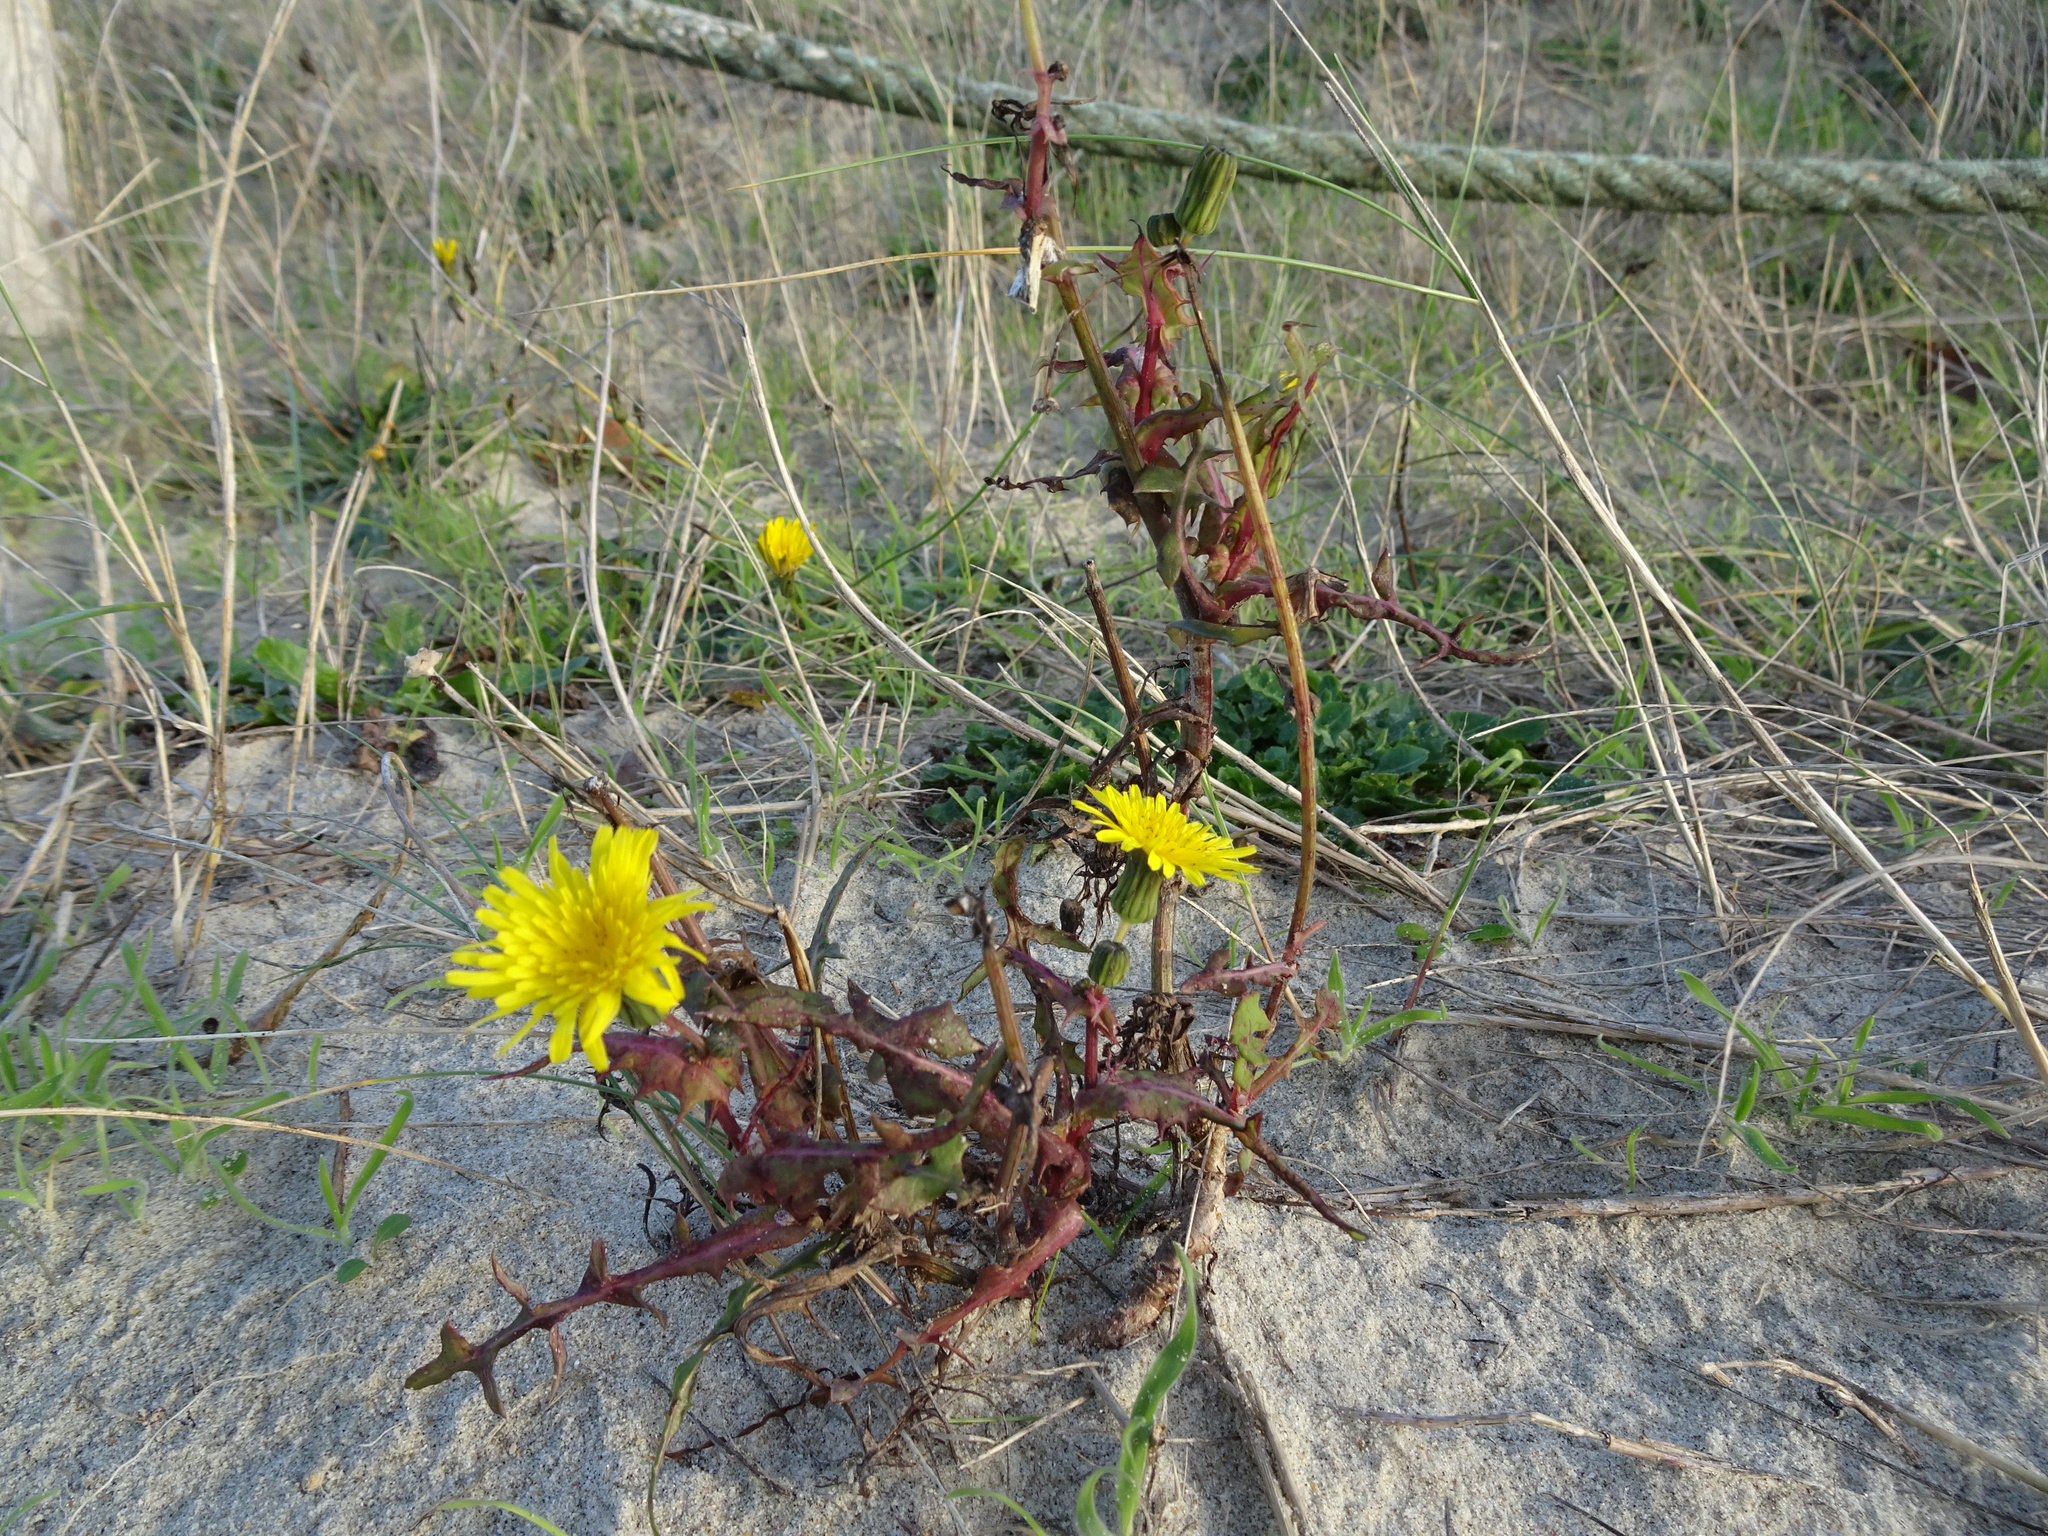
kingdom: Plantae
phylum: Tracheophyta
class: Magnoliopsida
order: Asterales
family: Asteraceae
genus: Sonchus
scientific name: Sonchus oleraceus
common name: Common sowthistle
